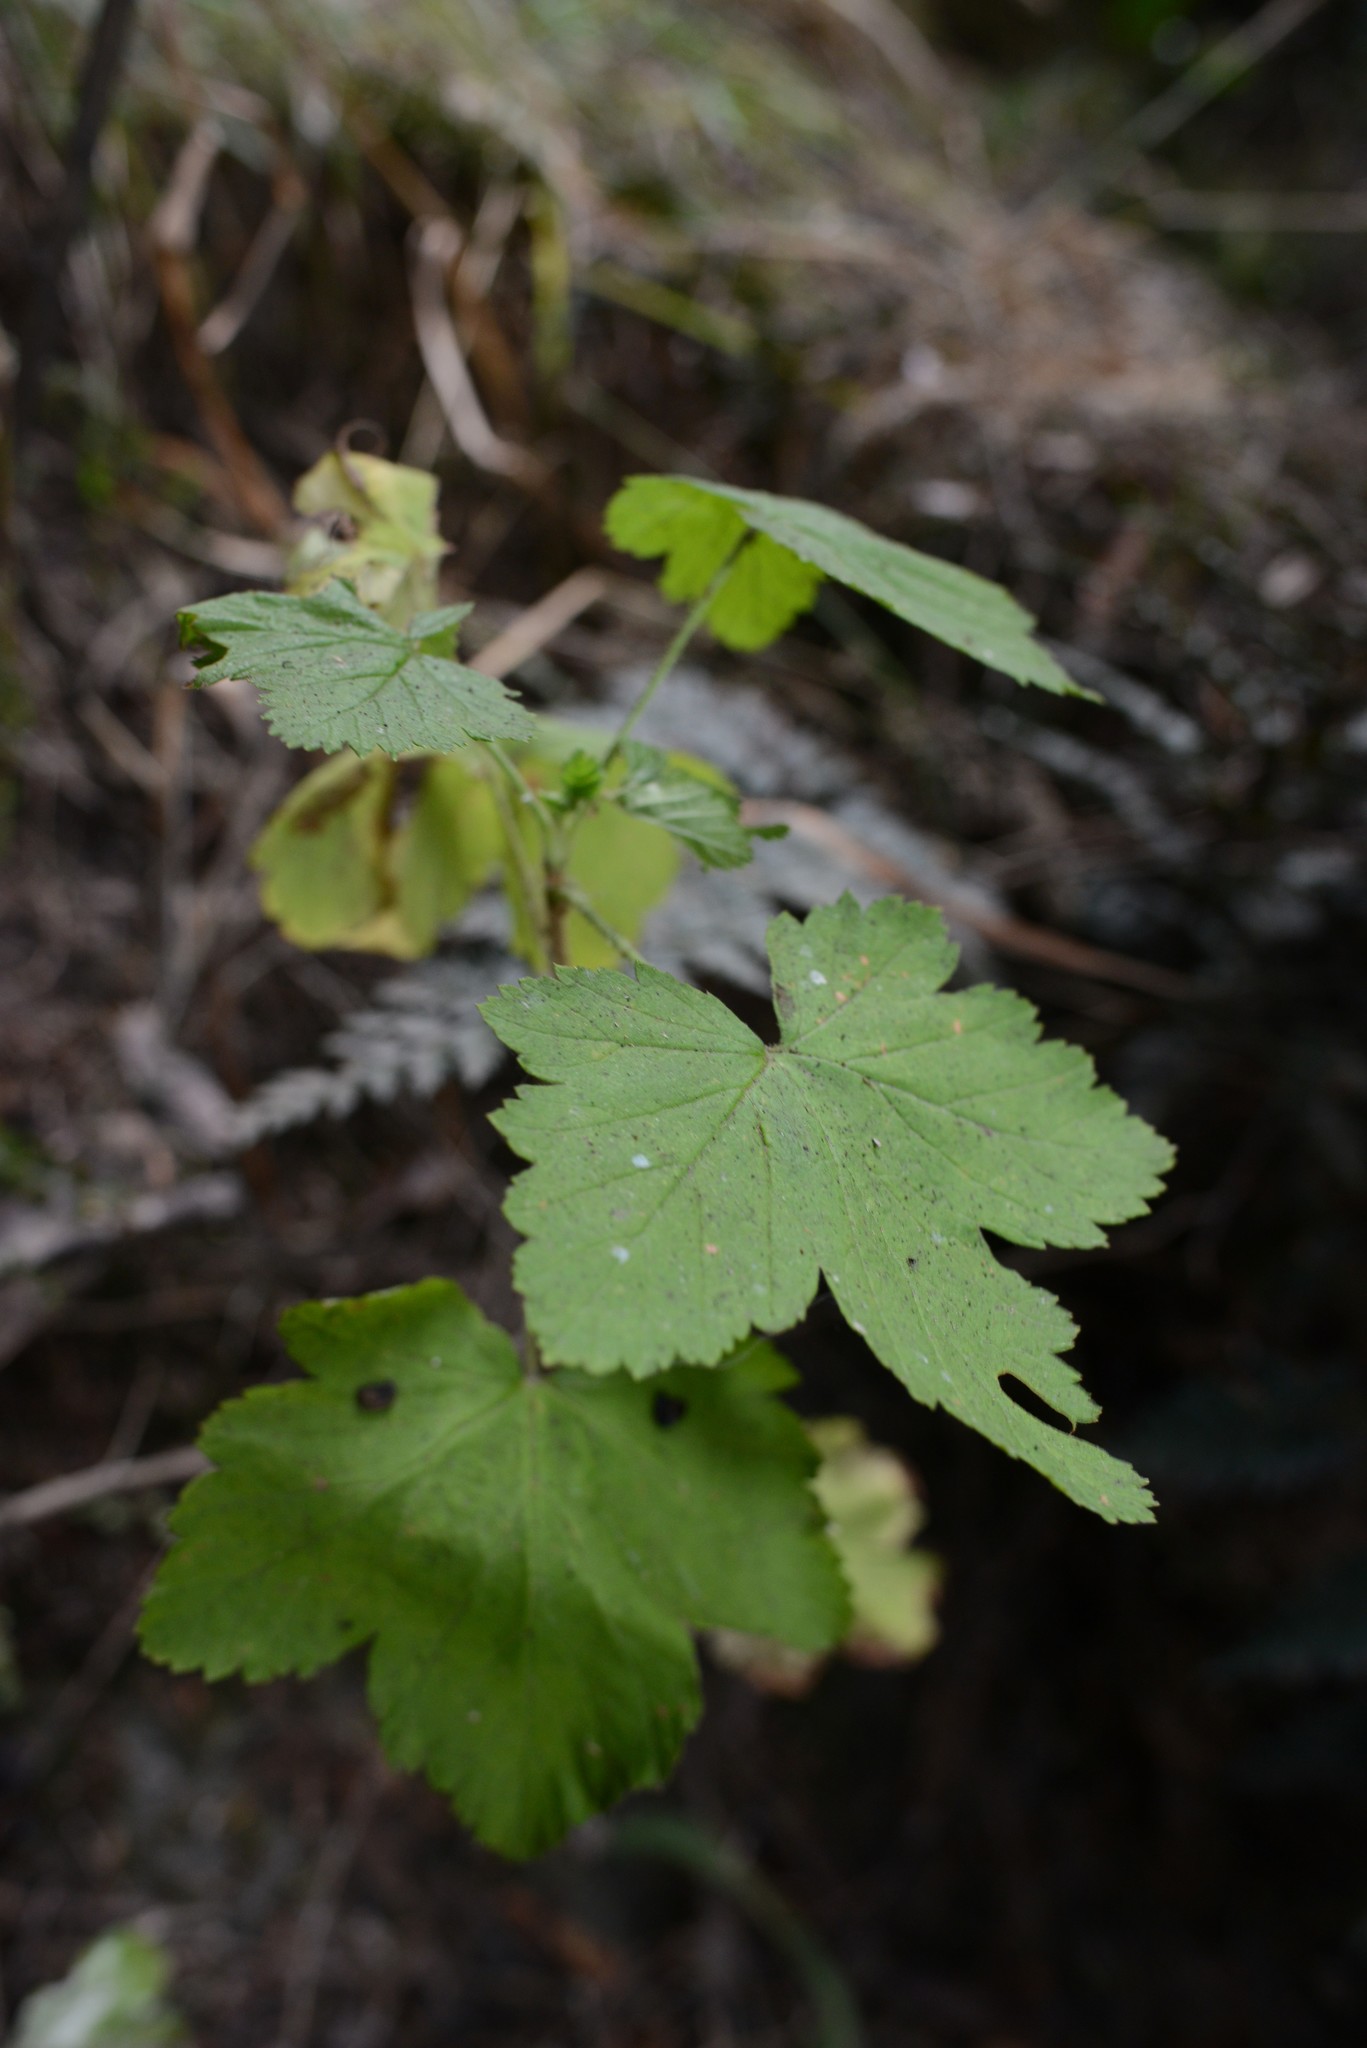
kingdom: Plantae
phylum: Tracheophyta
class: Magnoliopsida
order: Saxifragales
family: Grossulariaceae
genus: Ribes
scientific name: Ribes sanguineum
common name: Flowering currant
